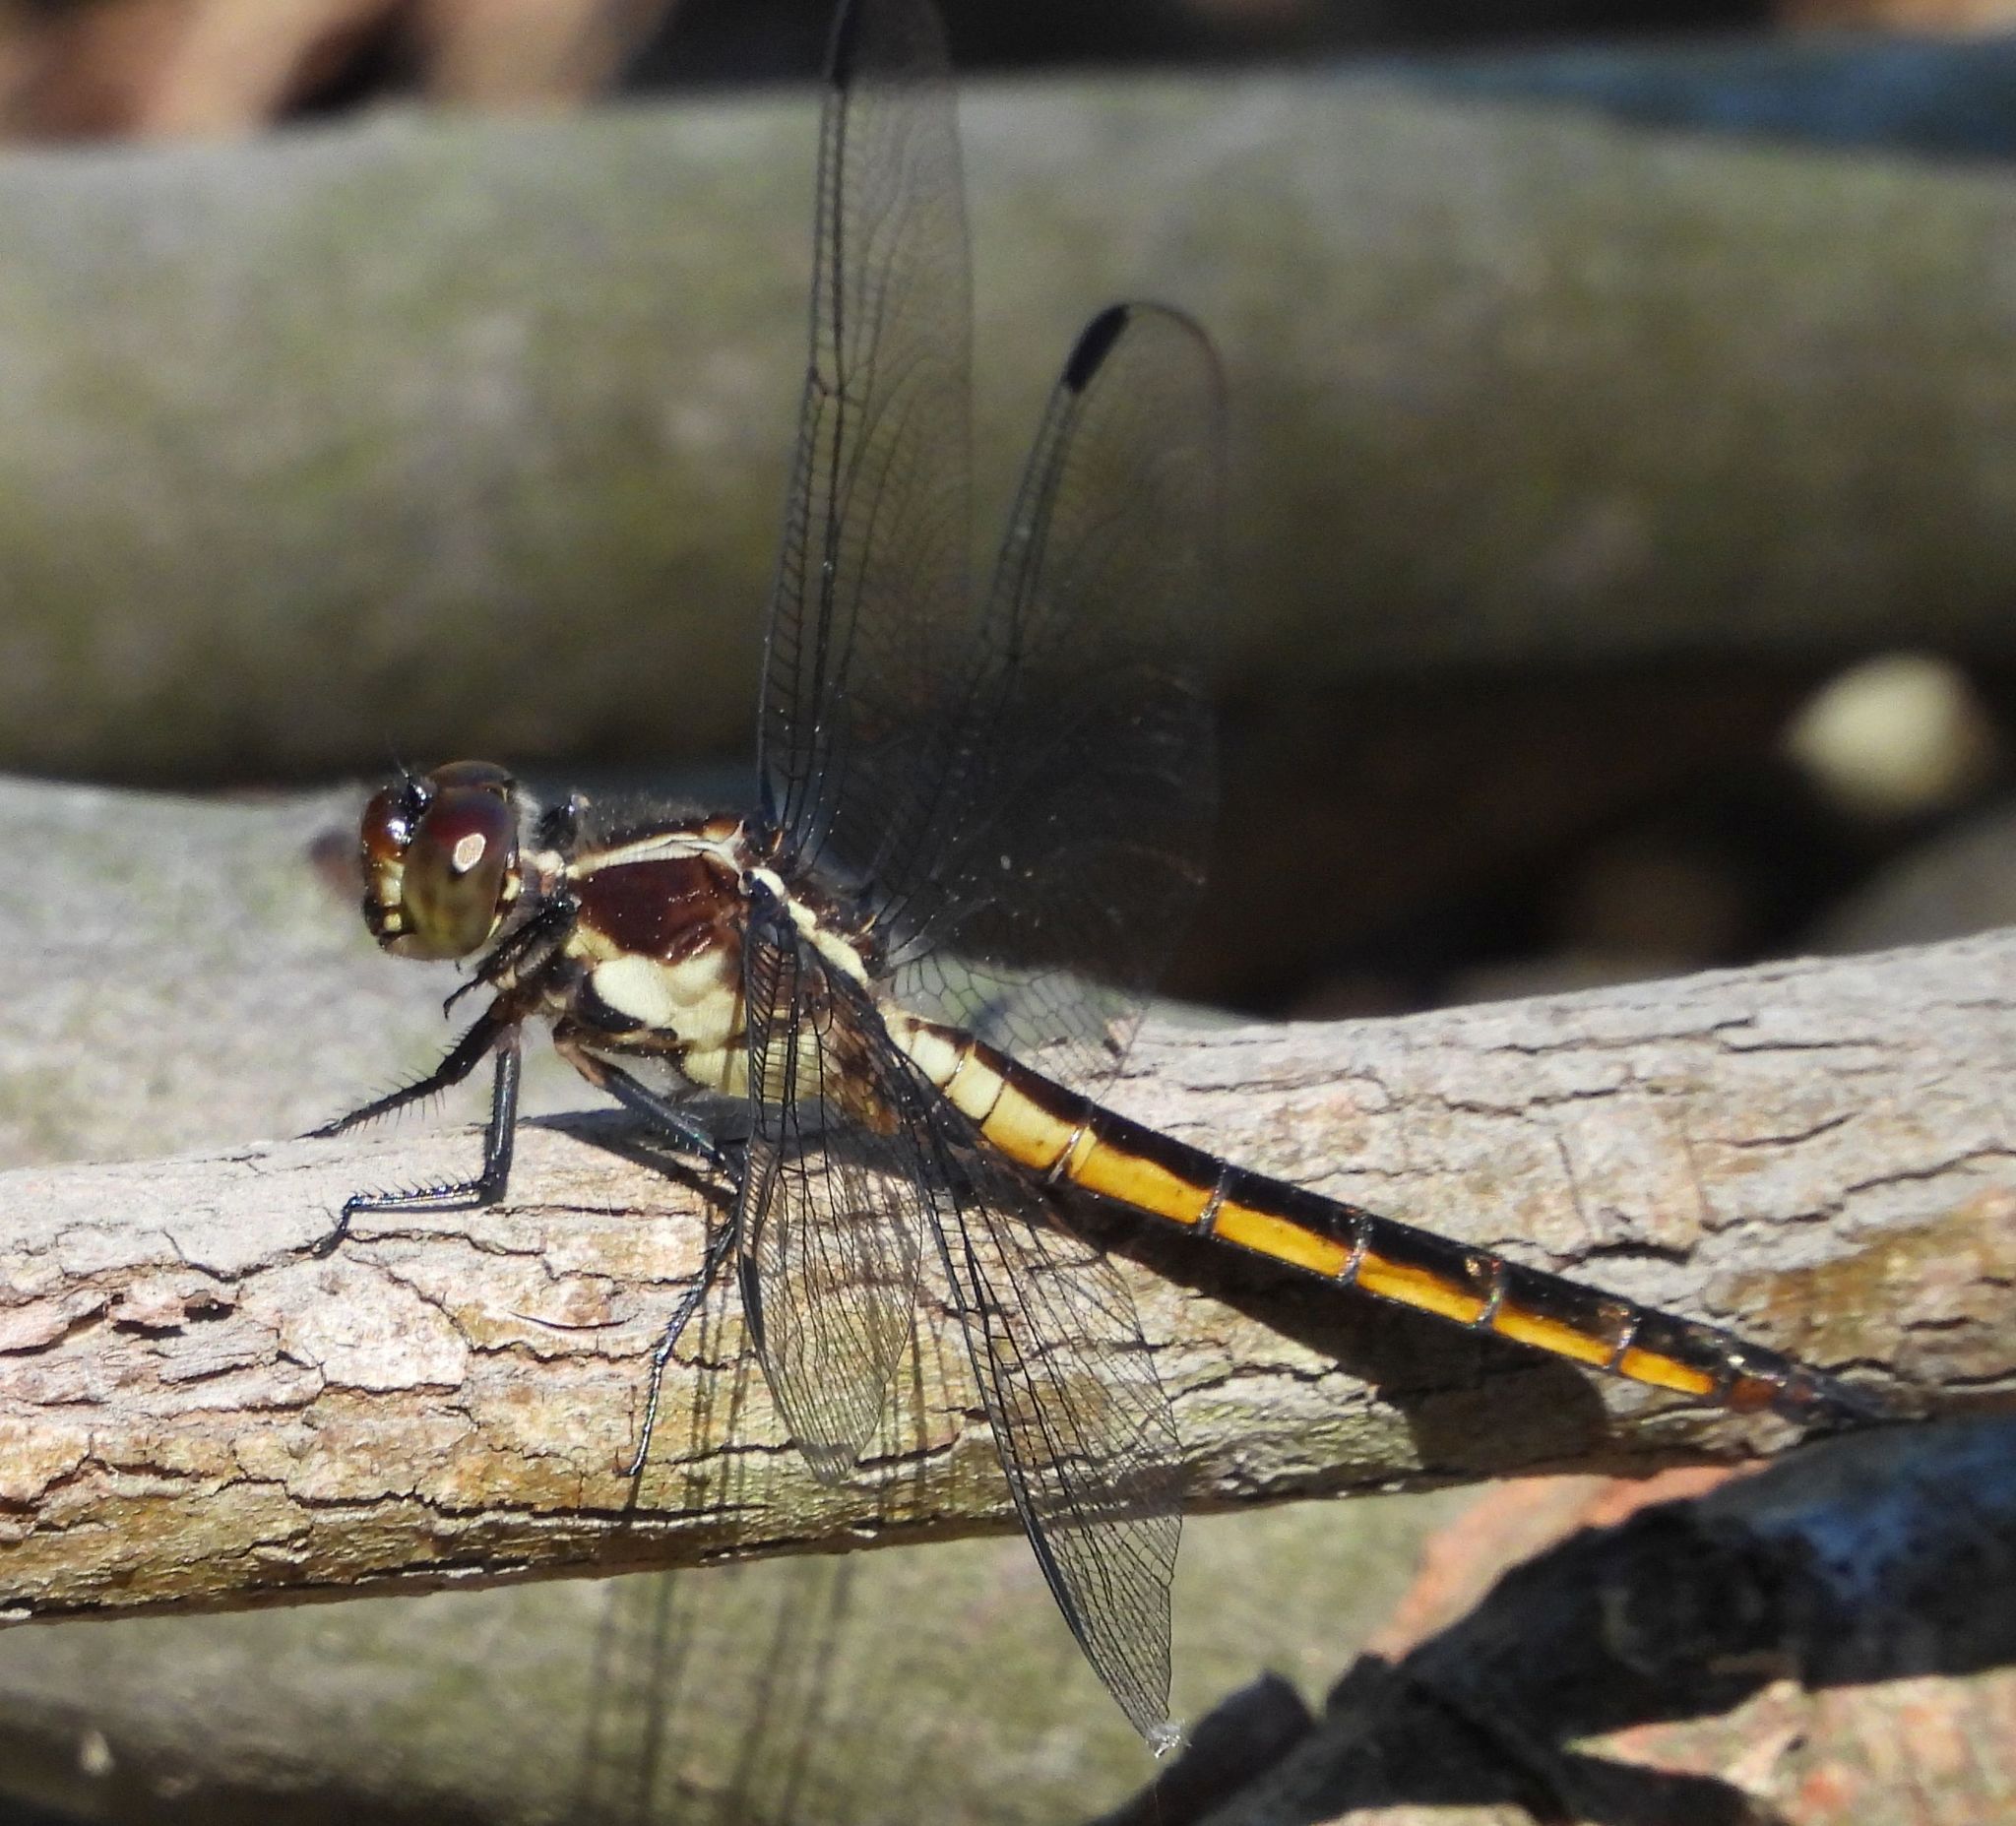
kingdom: Animalia
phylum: Arthropoda
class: Insecta
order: Odonata
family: Libellulidae
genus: Libellula
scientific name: Libellula incesta
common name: Slaty skimmer
